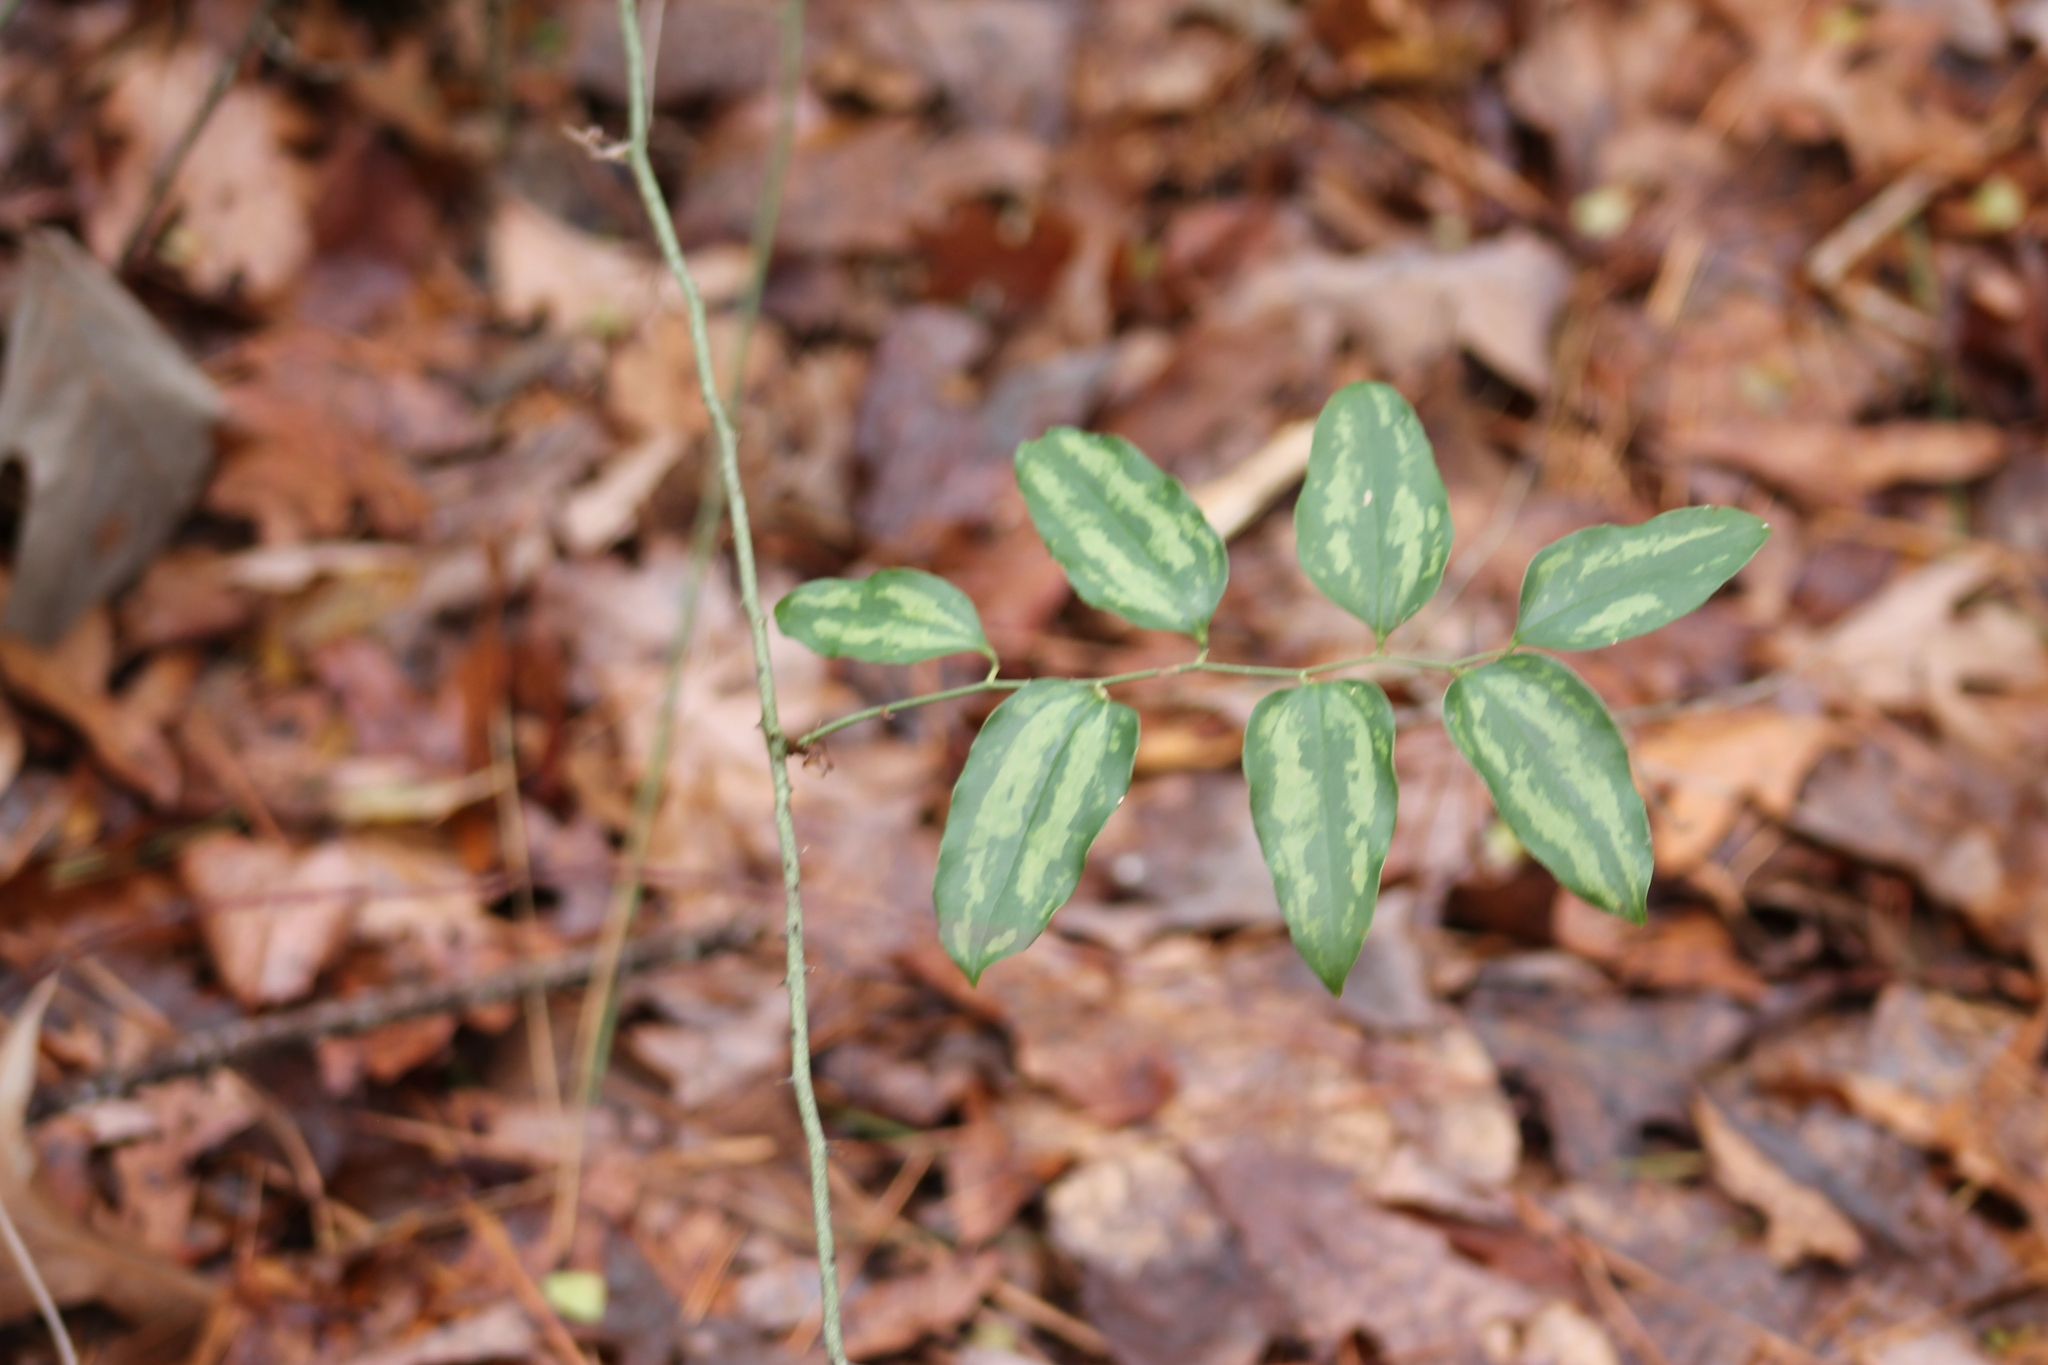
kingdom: Plantae
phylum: Tracheophyta
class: Liliopsida
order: Liliales
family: Smilacaceae
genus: Smilax
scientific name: Smilax maritima
